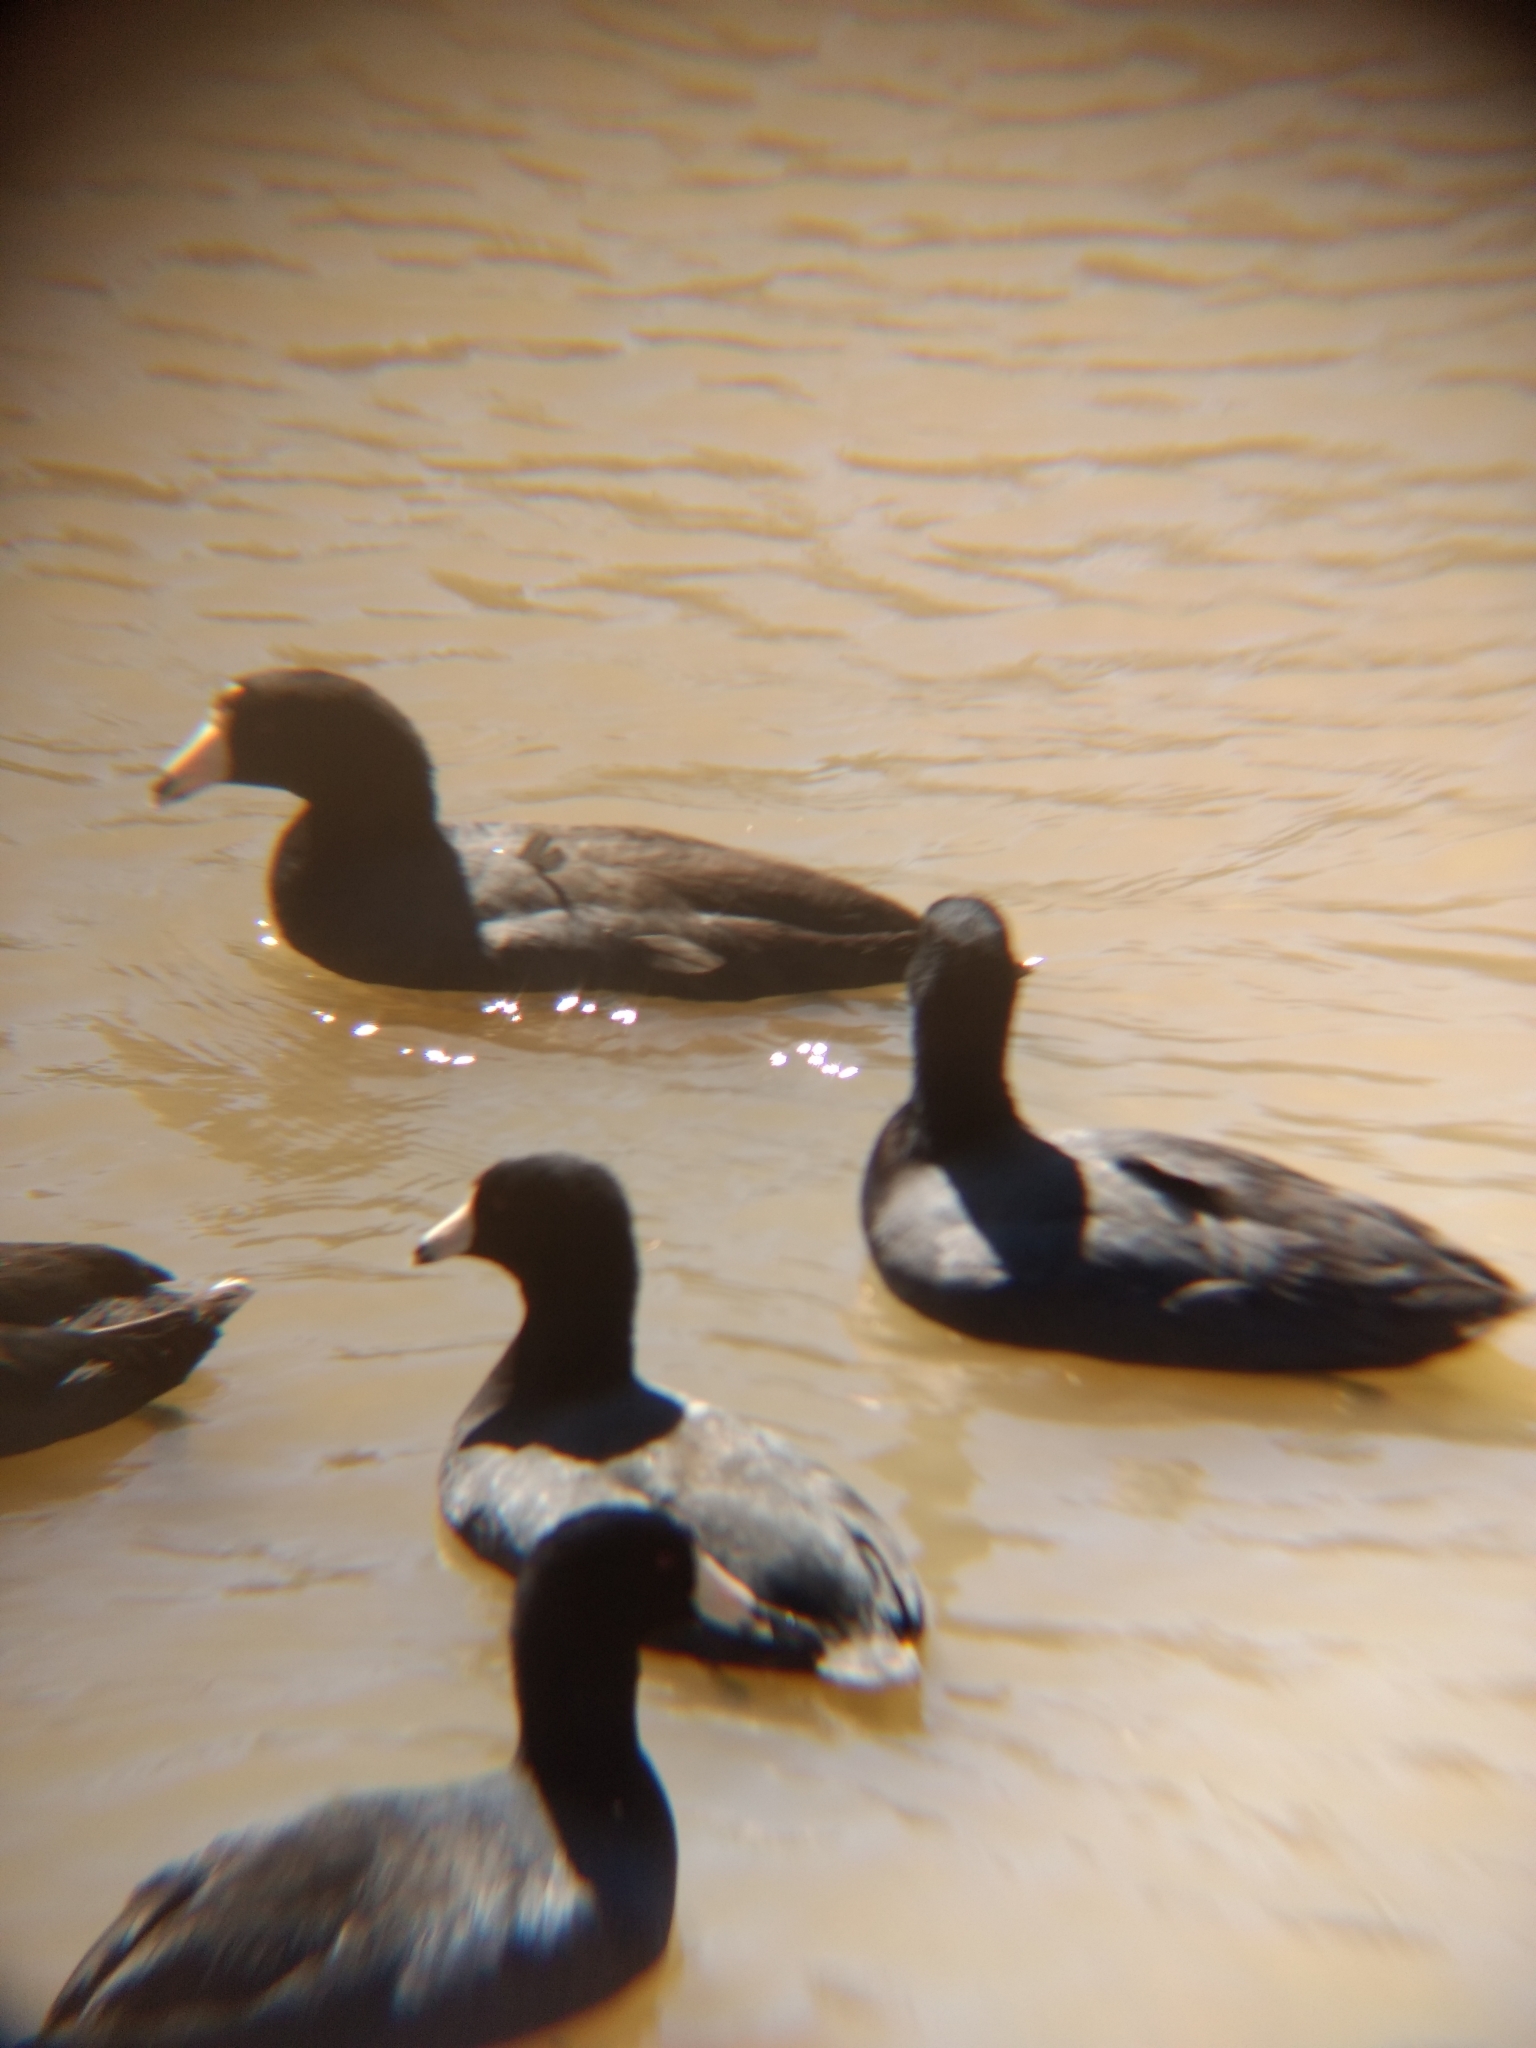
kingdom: Animalia
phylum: Chordata
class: Aves
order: Gruiformes
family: Rallidae
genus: Fulica
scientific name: Fulica americana
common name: American coot
